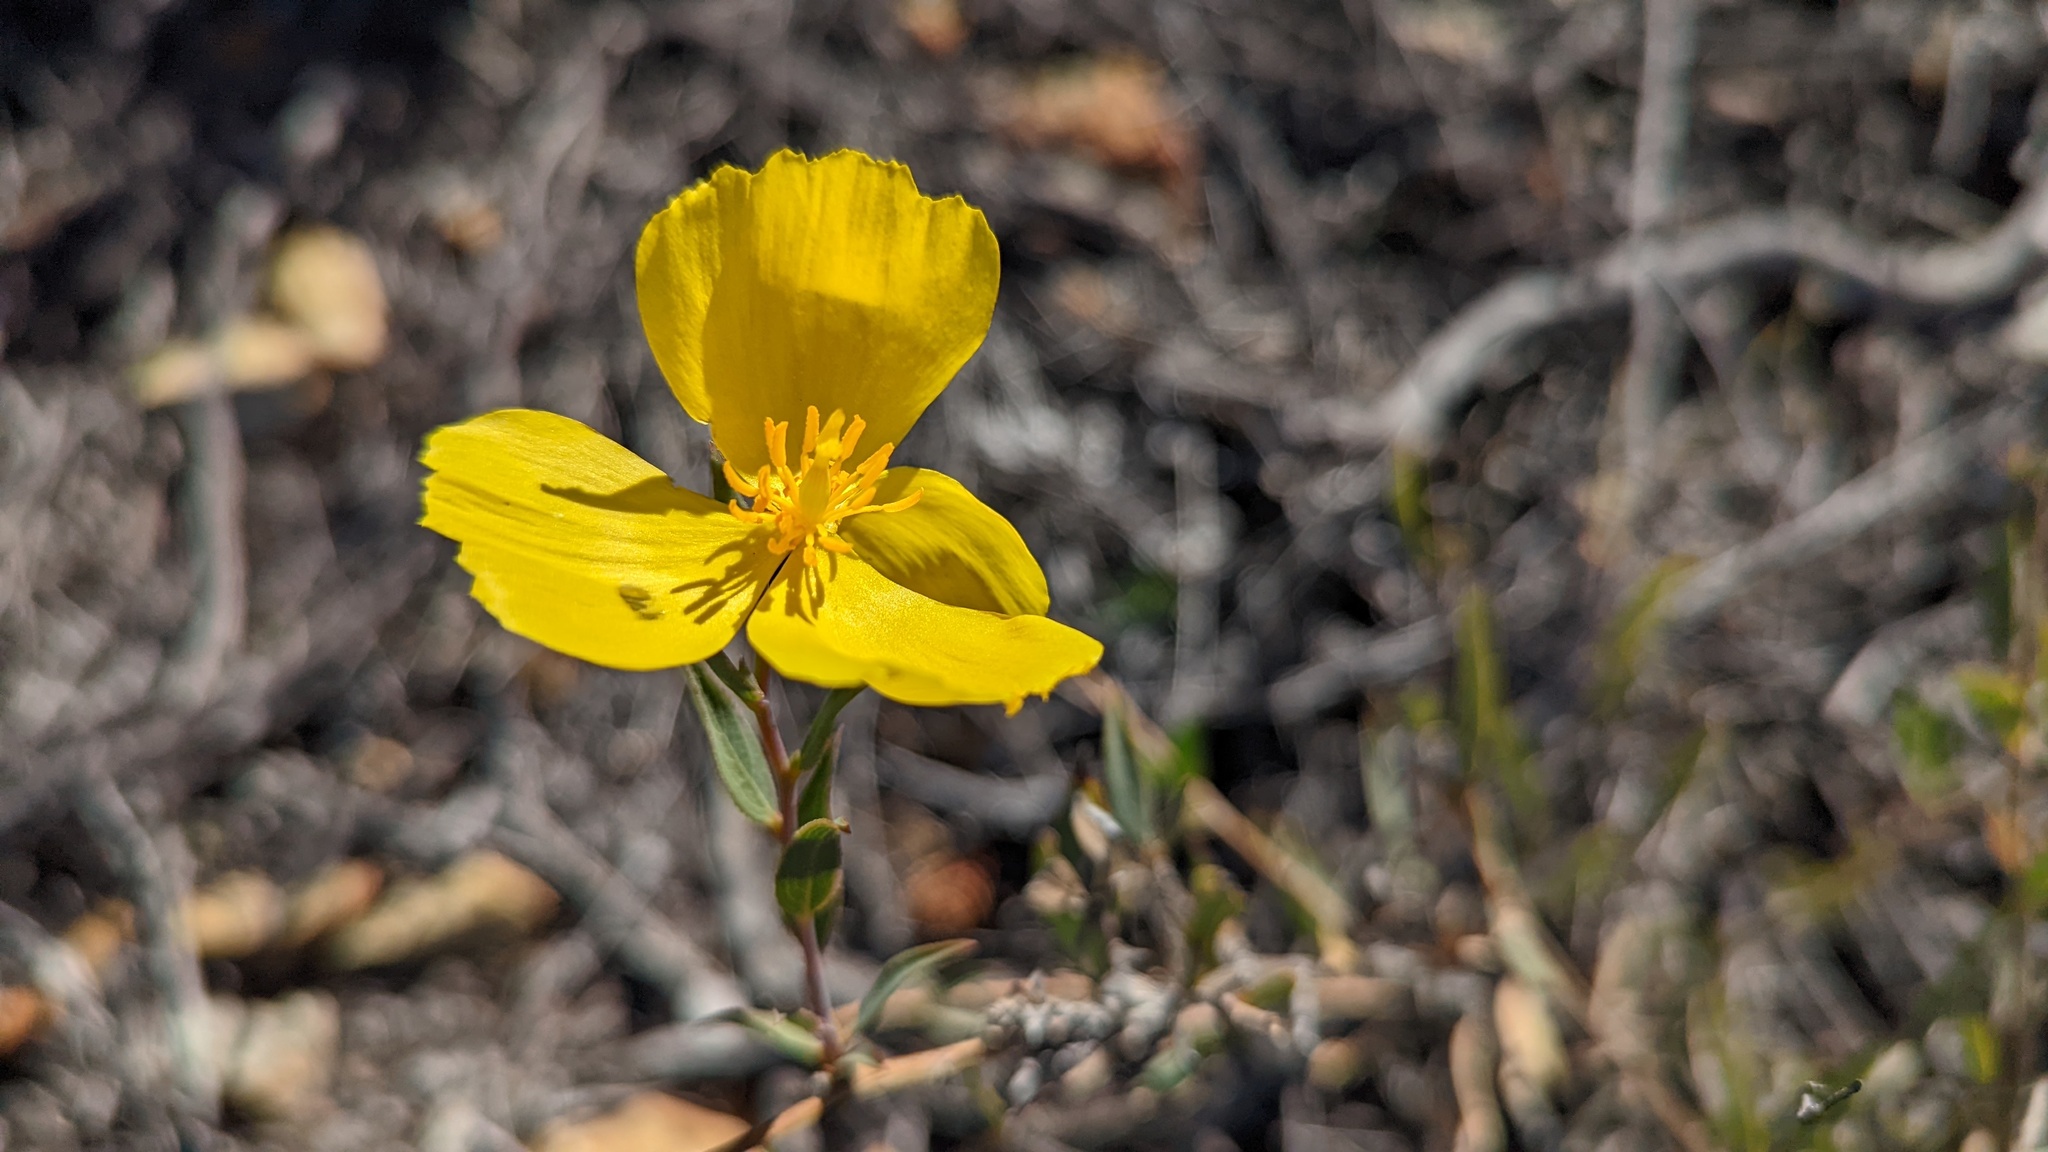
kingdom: Plantae
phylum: Tracheophyta
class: Magnoliopsida
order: Ranunculales
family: Papaveraceae
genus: Dendromecon
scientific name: Dendromecon rigida
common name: Tree poppy
